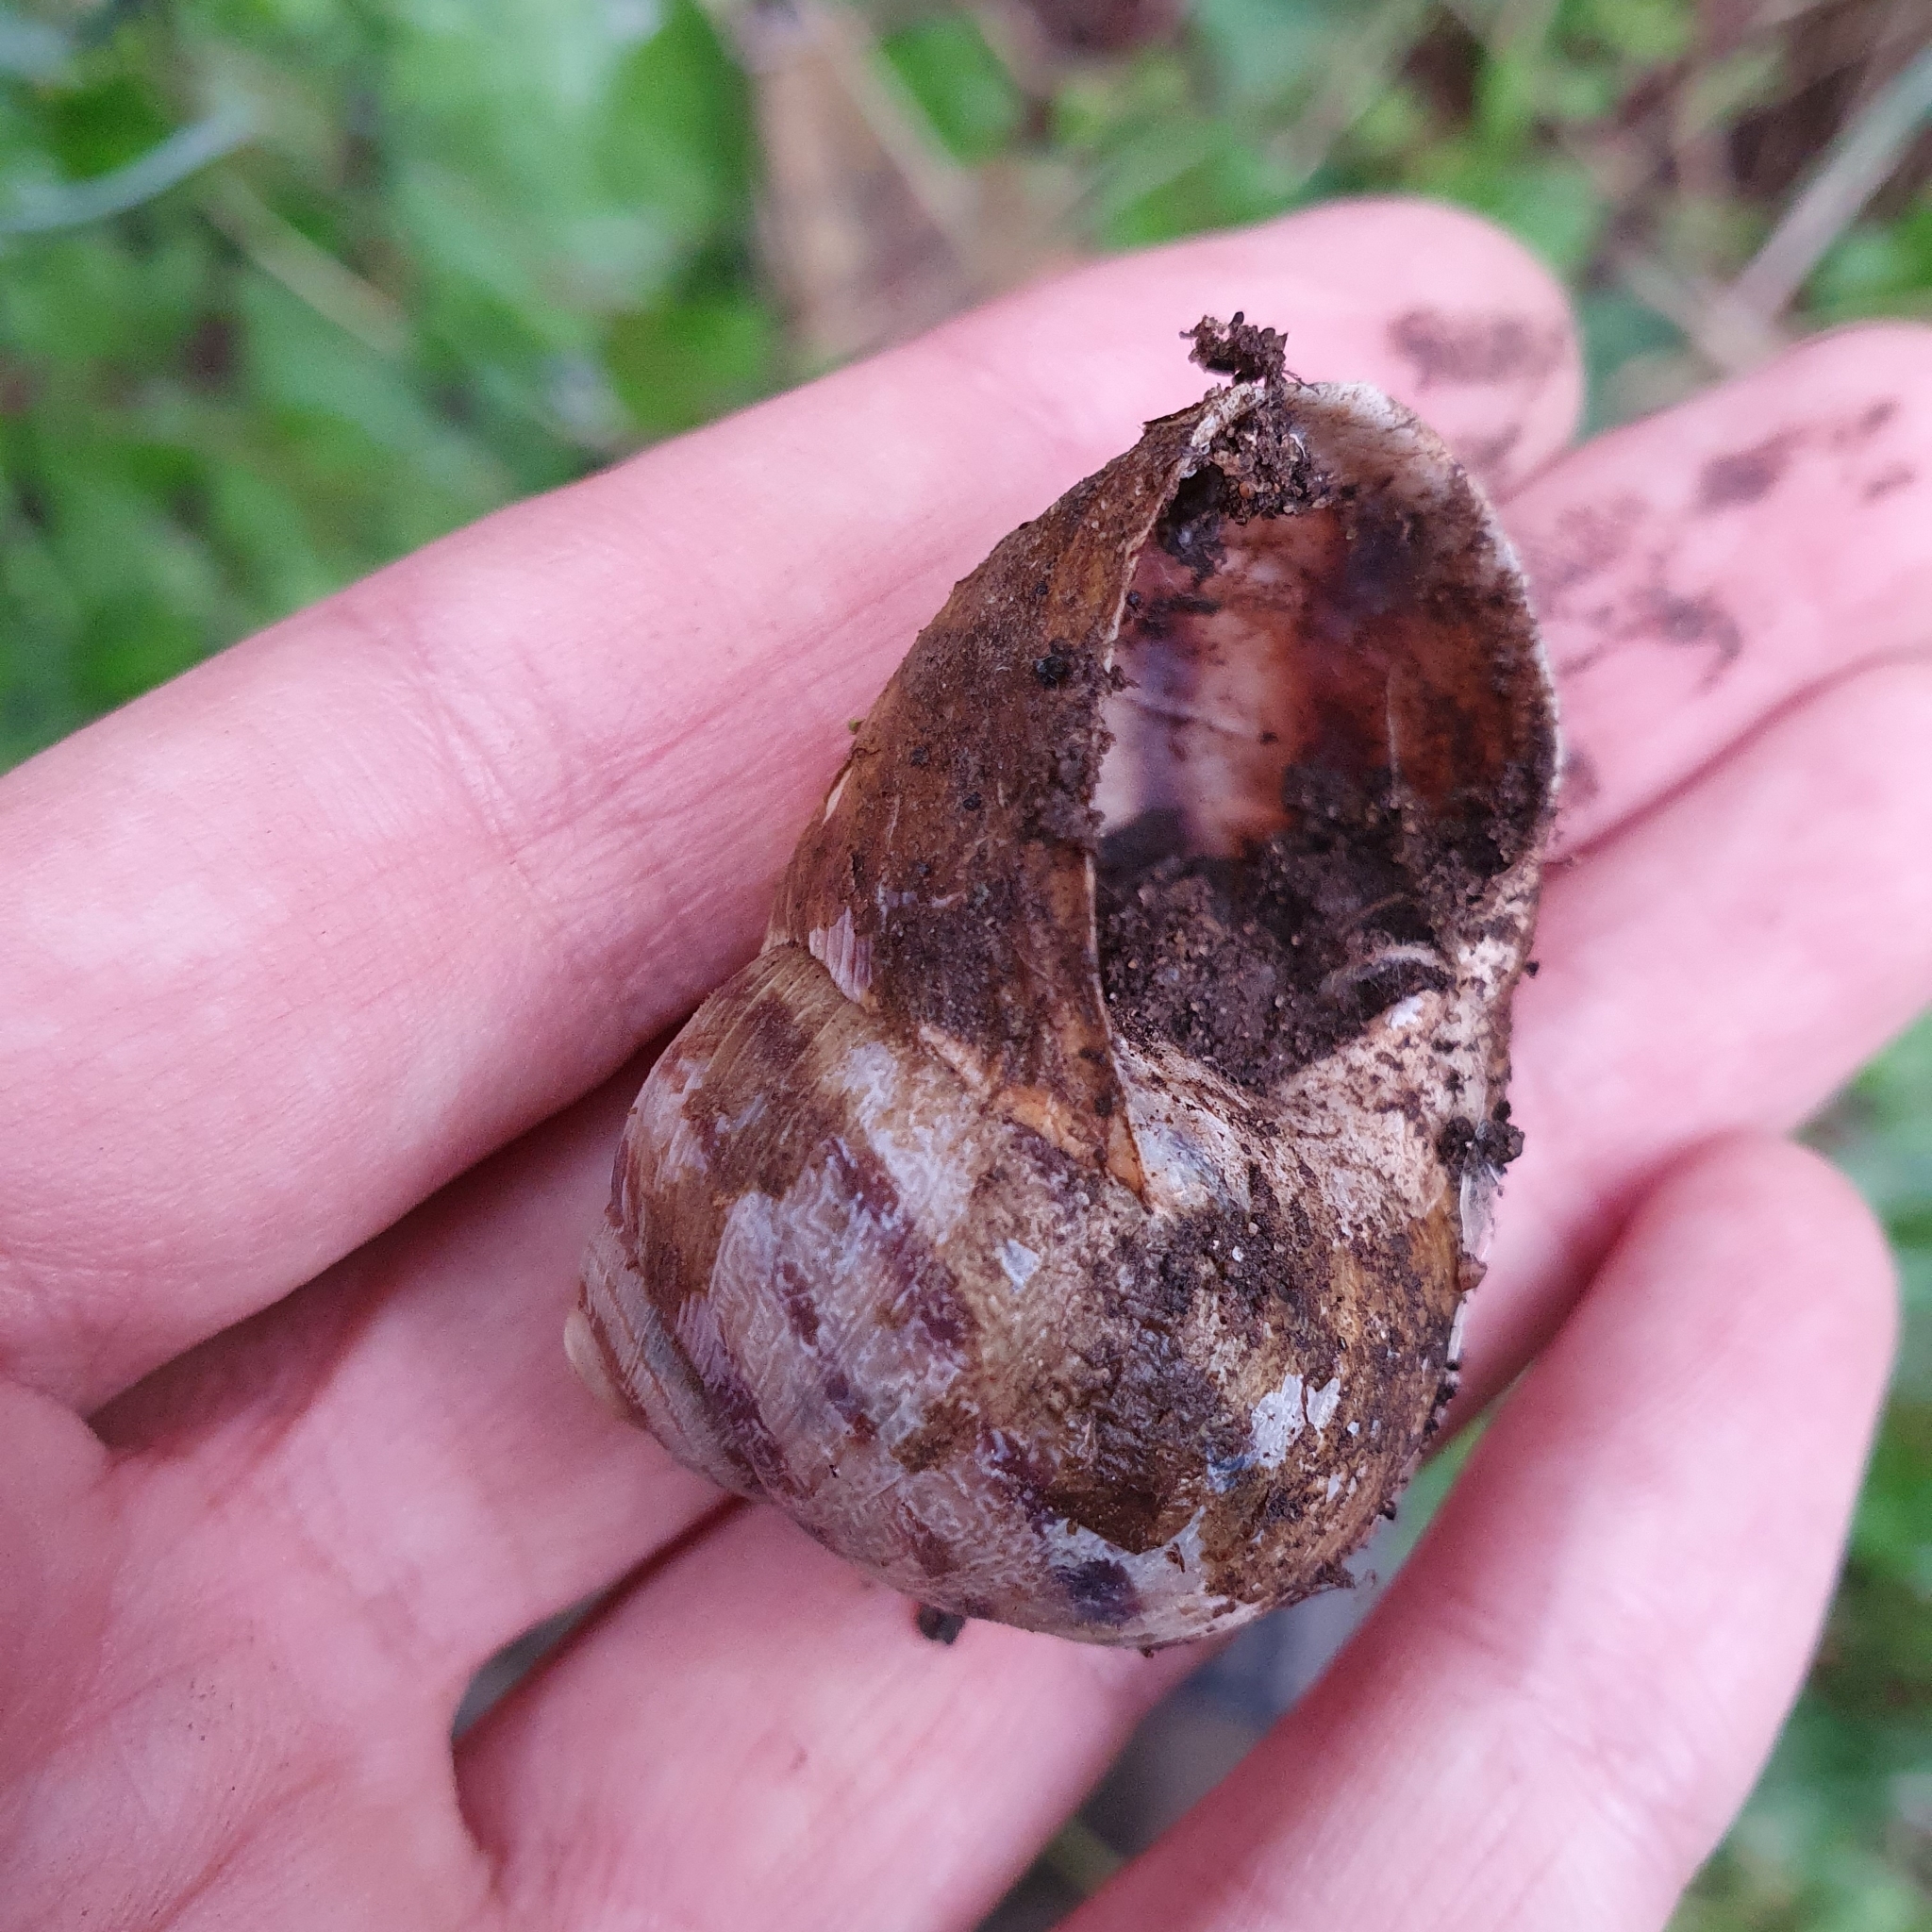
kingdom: Animalia
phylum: Mollusca
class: Gastropoda
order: Stylommatophora
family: Helicidae
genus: Cornu
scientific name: Cornu aspersum
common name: Brown garden snail
